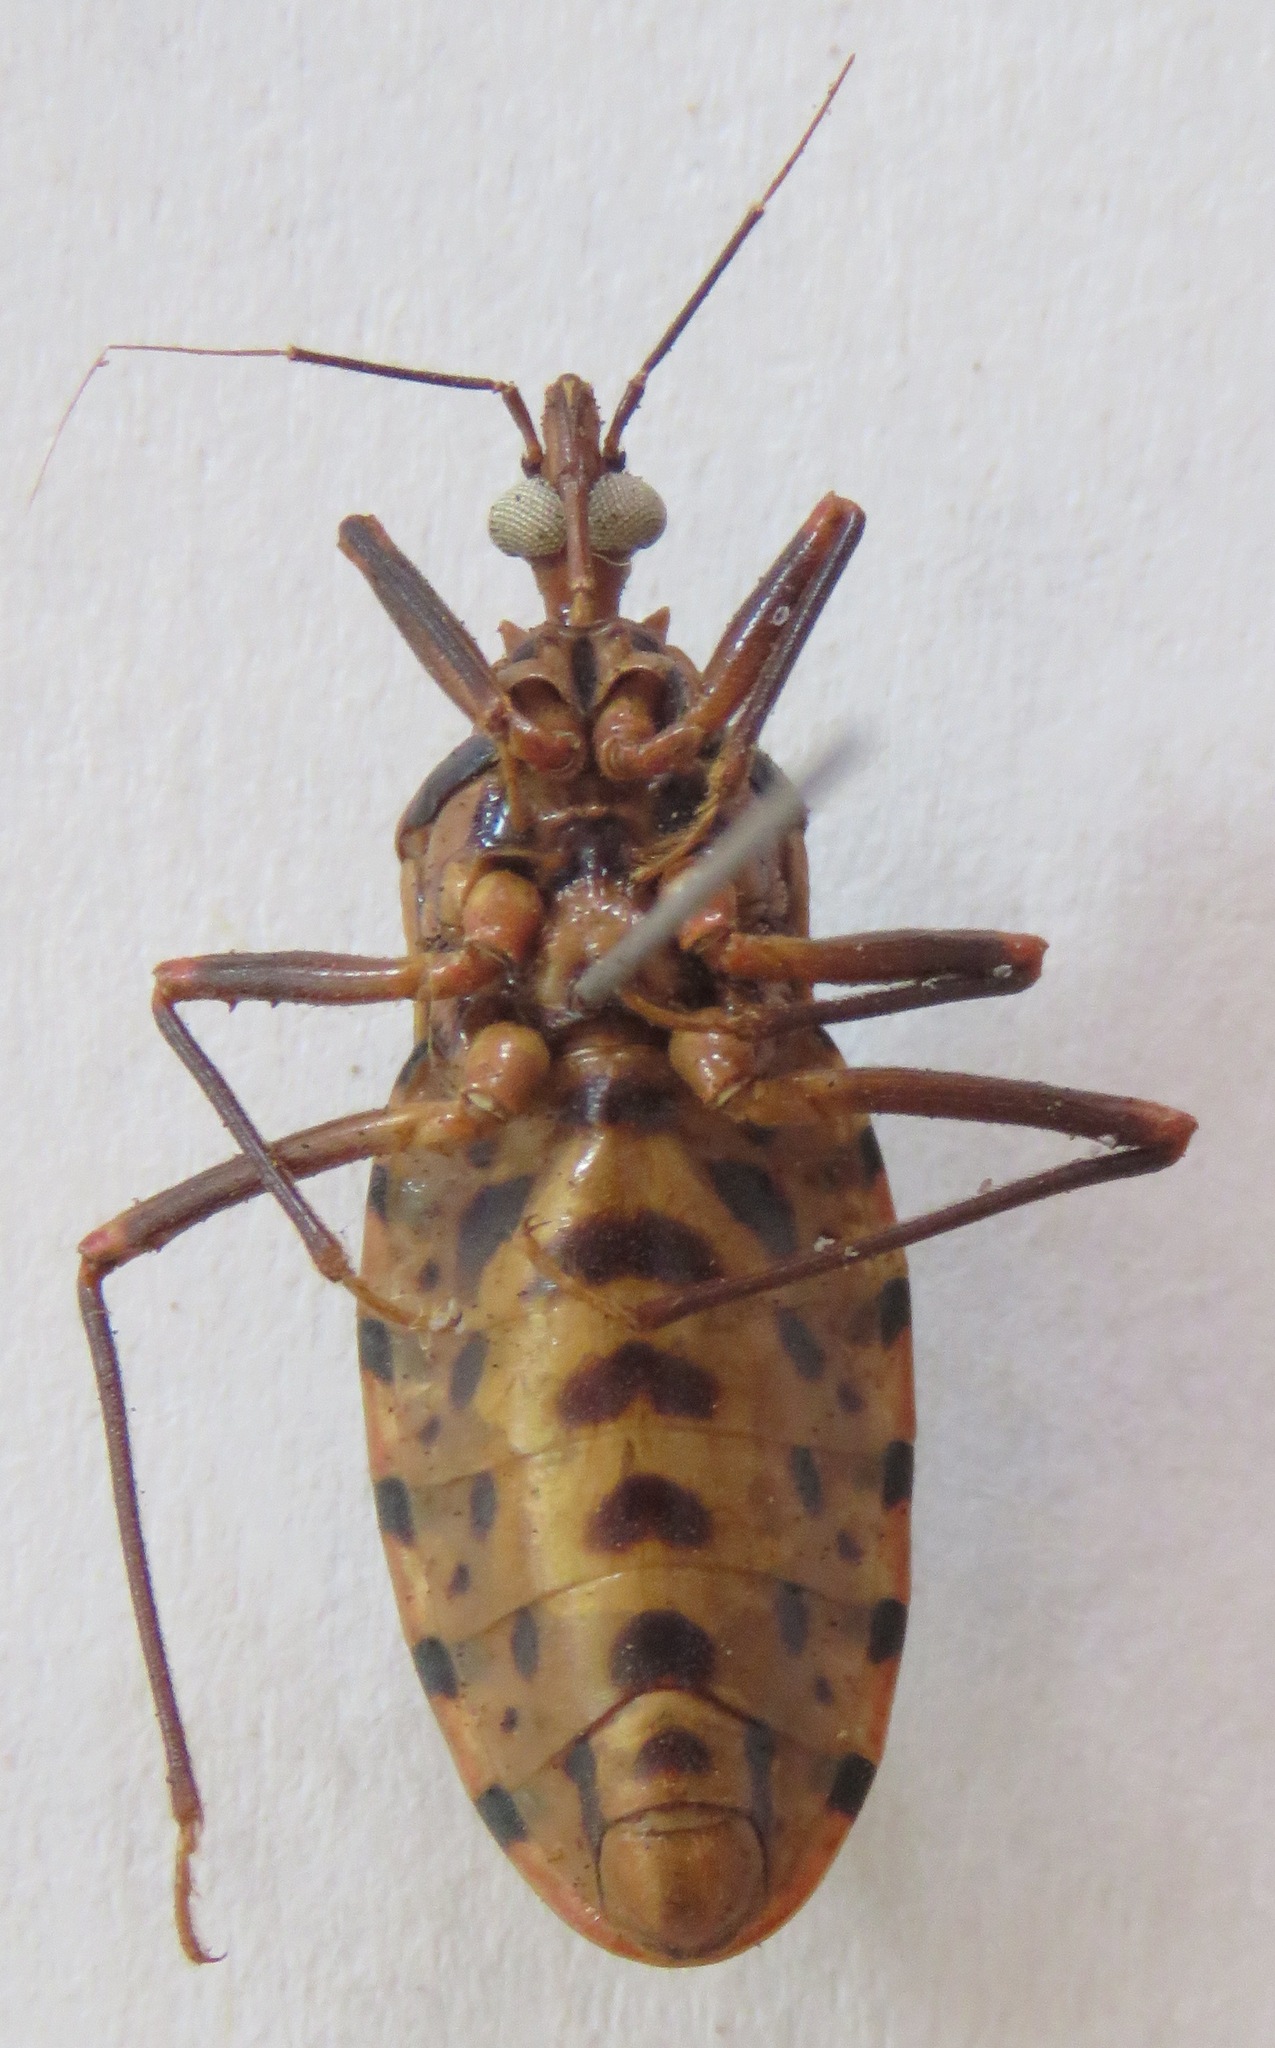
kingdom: Animalia
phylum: Arthropoda
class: Insecta
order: Hemiptera
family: Reduviidae
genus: Panstrongylus
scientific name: Panstrongylus geniculatus
